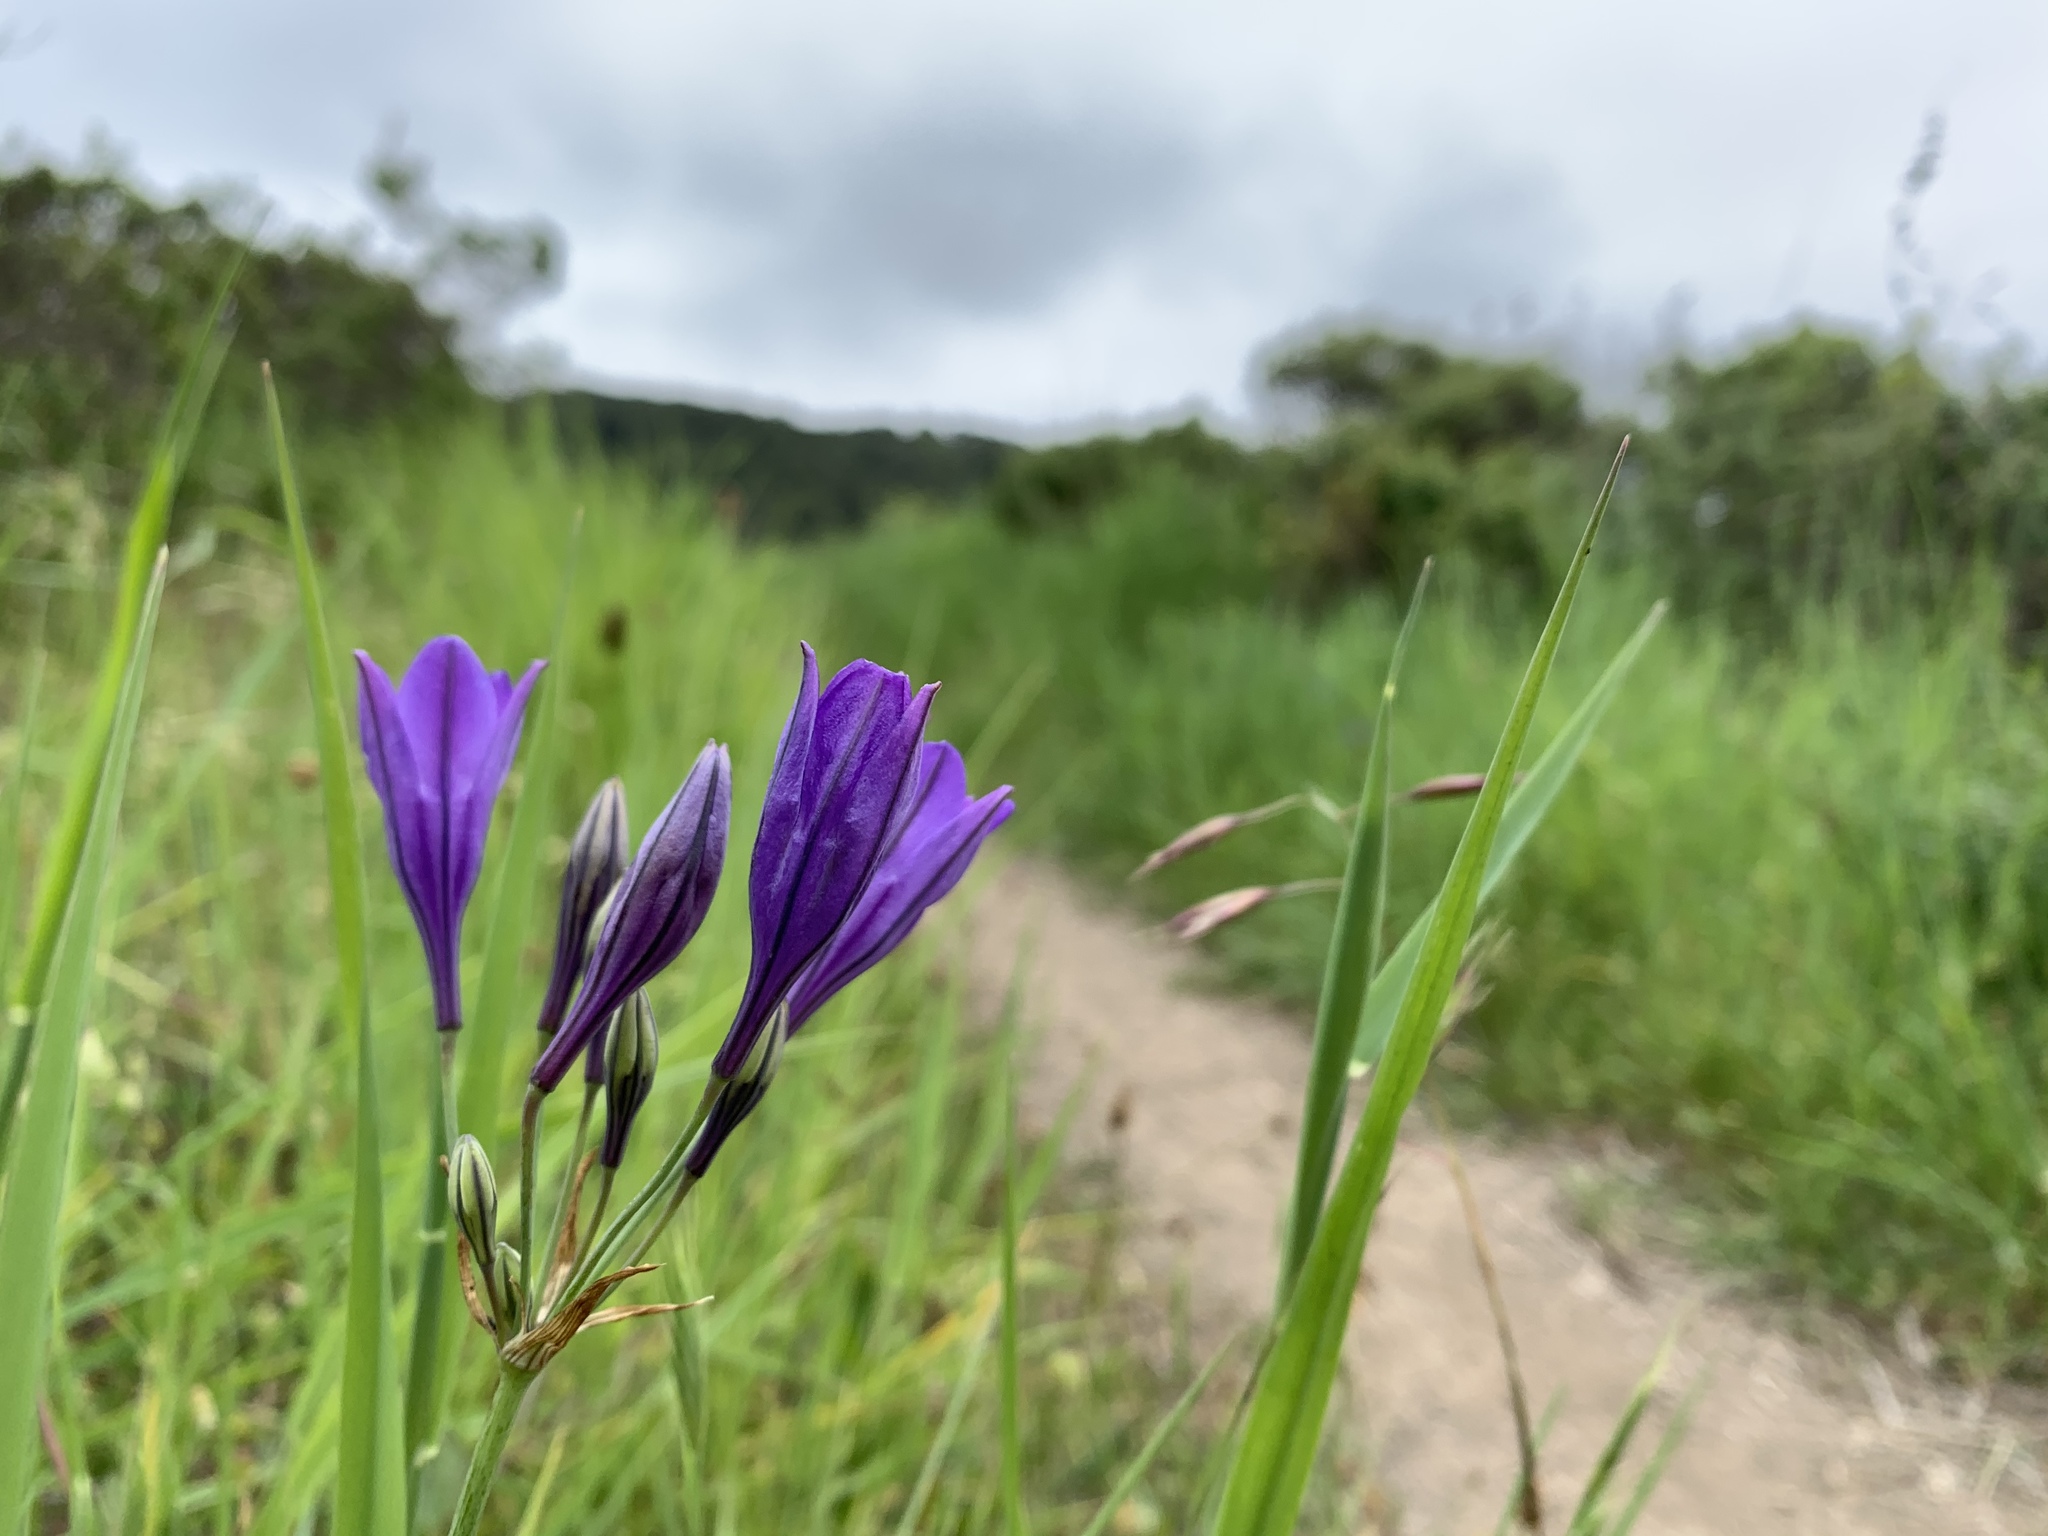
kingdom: Plantae
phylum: Tracheophyta
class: Liliopsida
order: Asparagales
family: Asparagaceae
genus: Triteleia
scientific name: Triteleia laxa
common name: Triplet-lily
